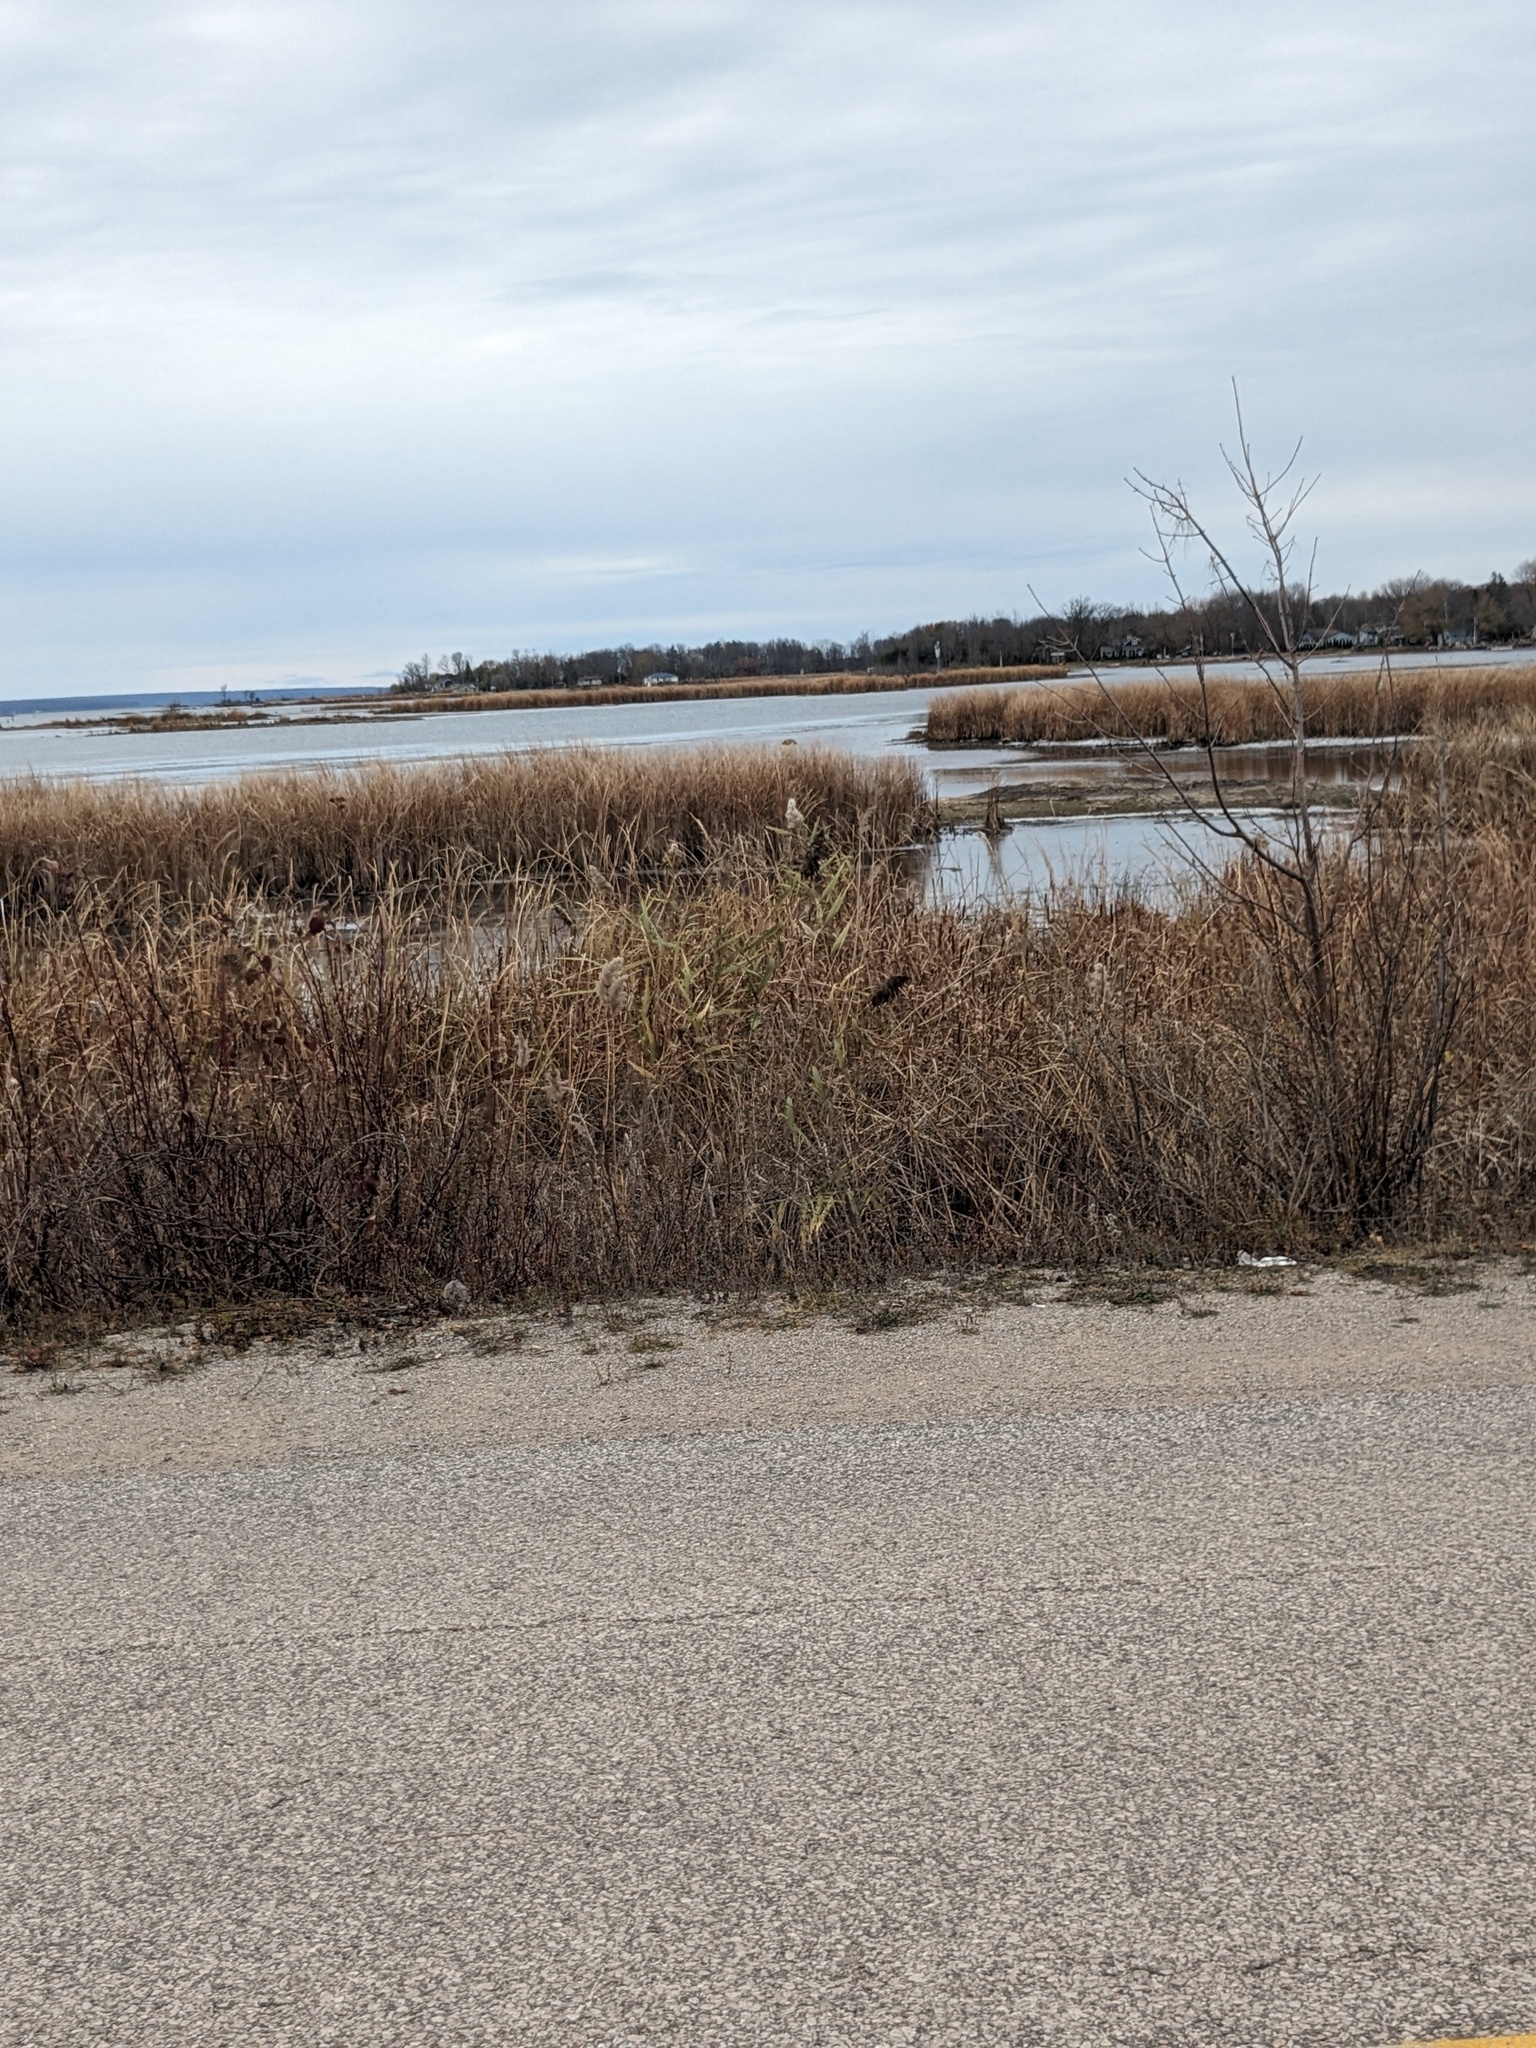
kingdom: Plantae
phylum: Tracheophyta
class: Liliopsida
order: Poales
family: Poaceae
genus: Phragmites
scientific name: Phragmites australis
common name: Common reed
